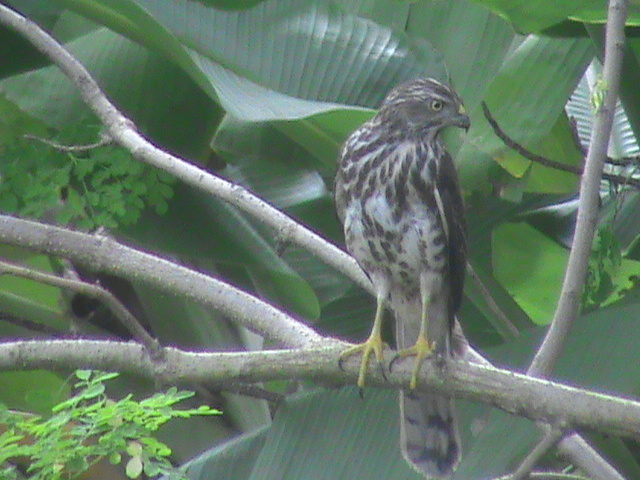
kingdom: Animalia
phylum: Chordata
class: Aves
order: Accipitriformes
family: Accipitridae
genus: Accipiter
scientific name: Accipiter badius
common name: Shikra
